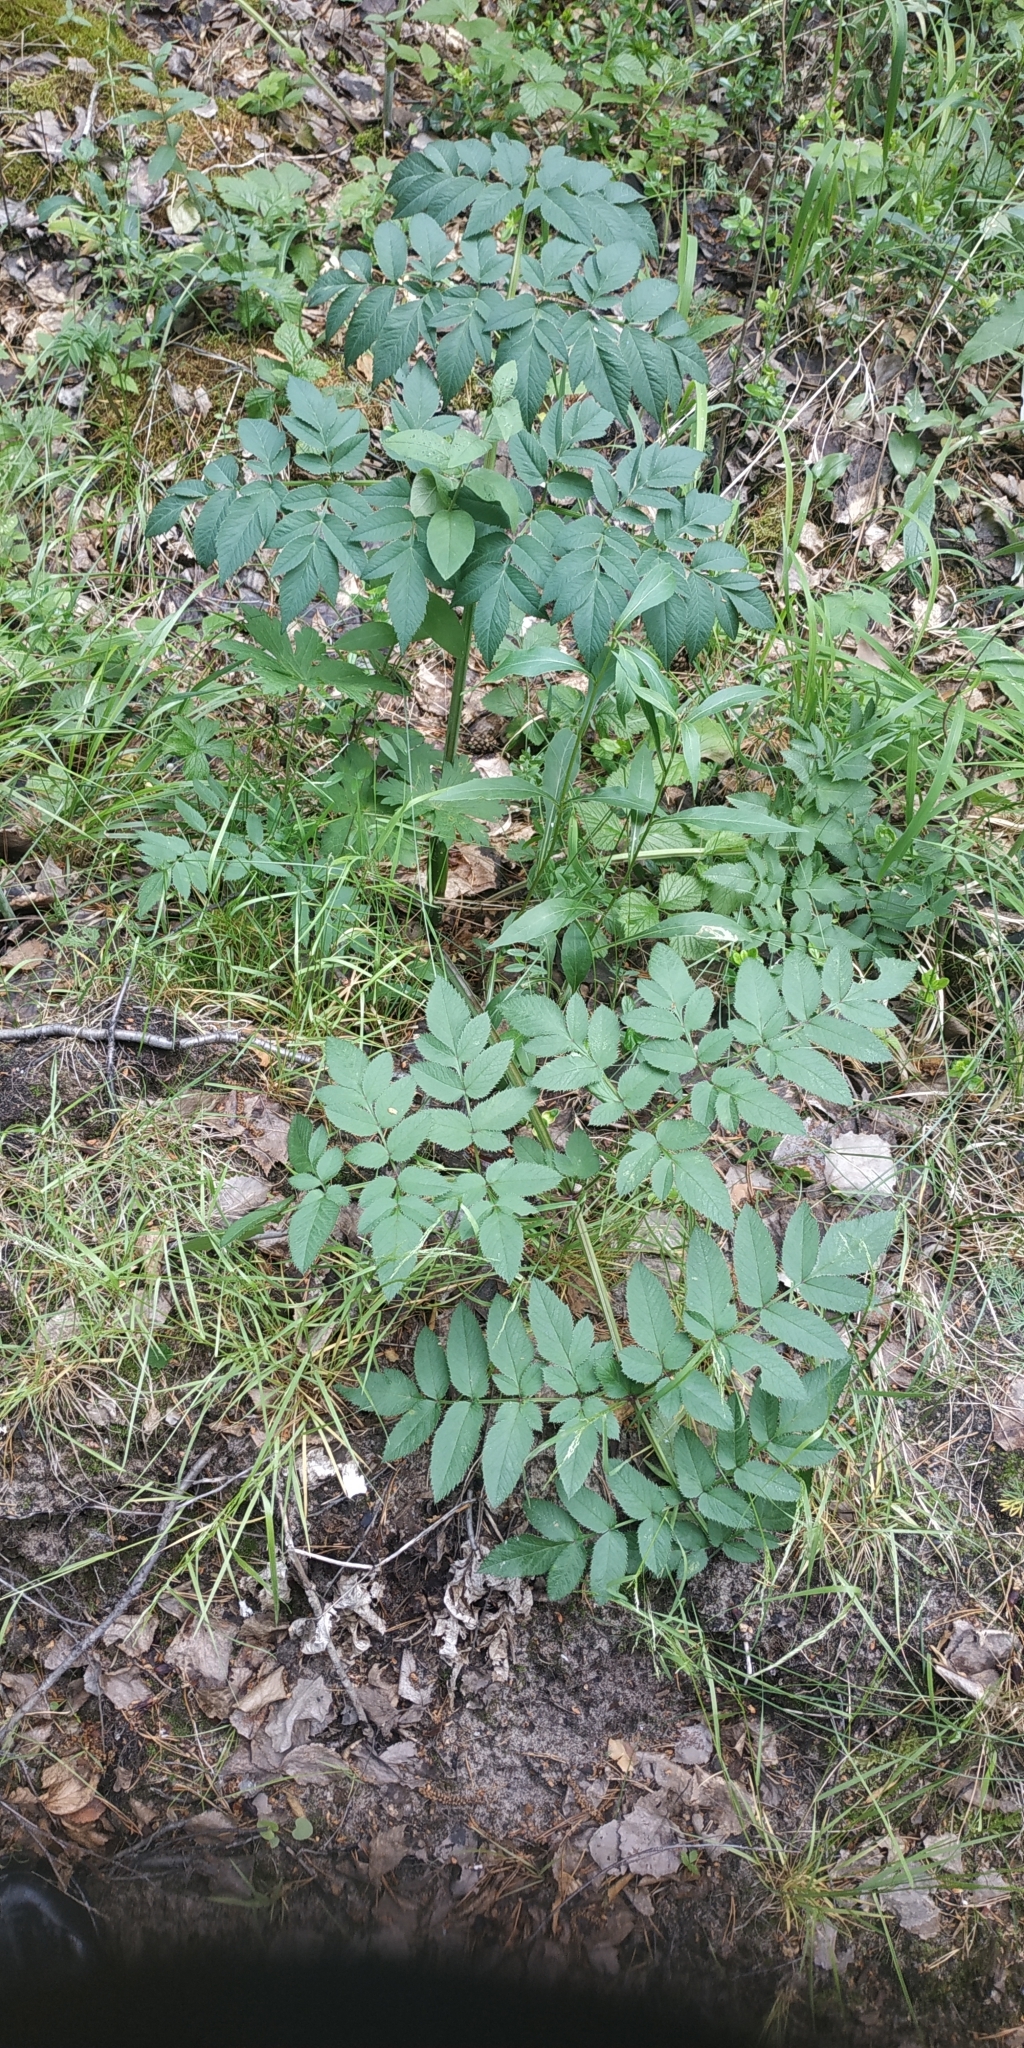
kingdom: Plantae
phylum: Tracheophyta
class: Magnoliopsida
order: Apiales
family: Apiaceae
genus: Angelica
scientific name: Angelica sylvestris
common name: Wild angelica
